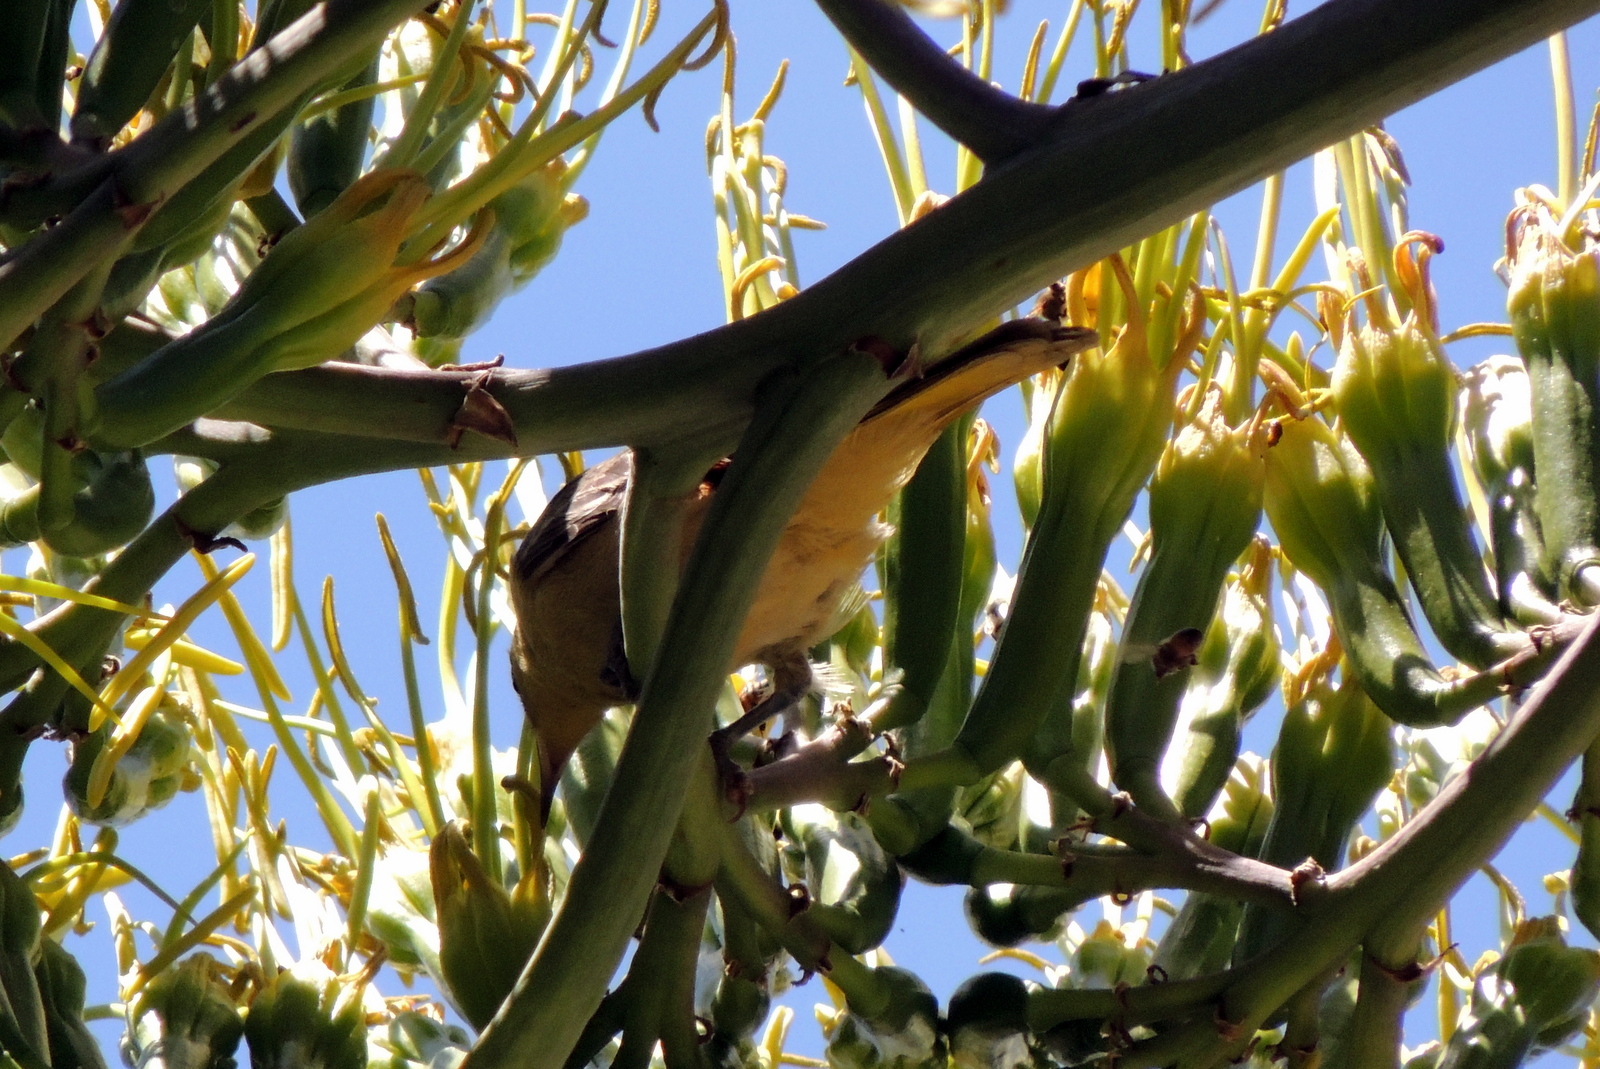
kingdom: Animalia
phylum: Chordata
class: Aves
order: Passeriformes
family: Icteridae
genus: Icterus
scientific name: Icterus cucullatus
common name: Hooded oriole
